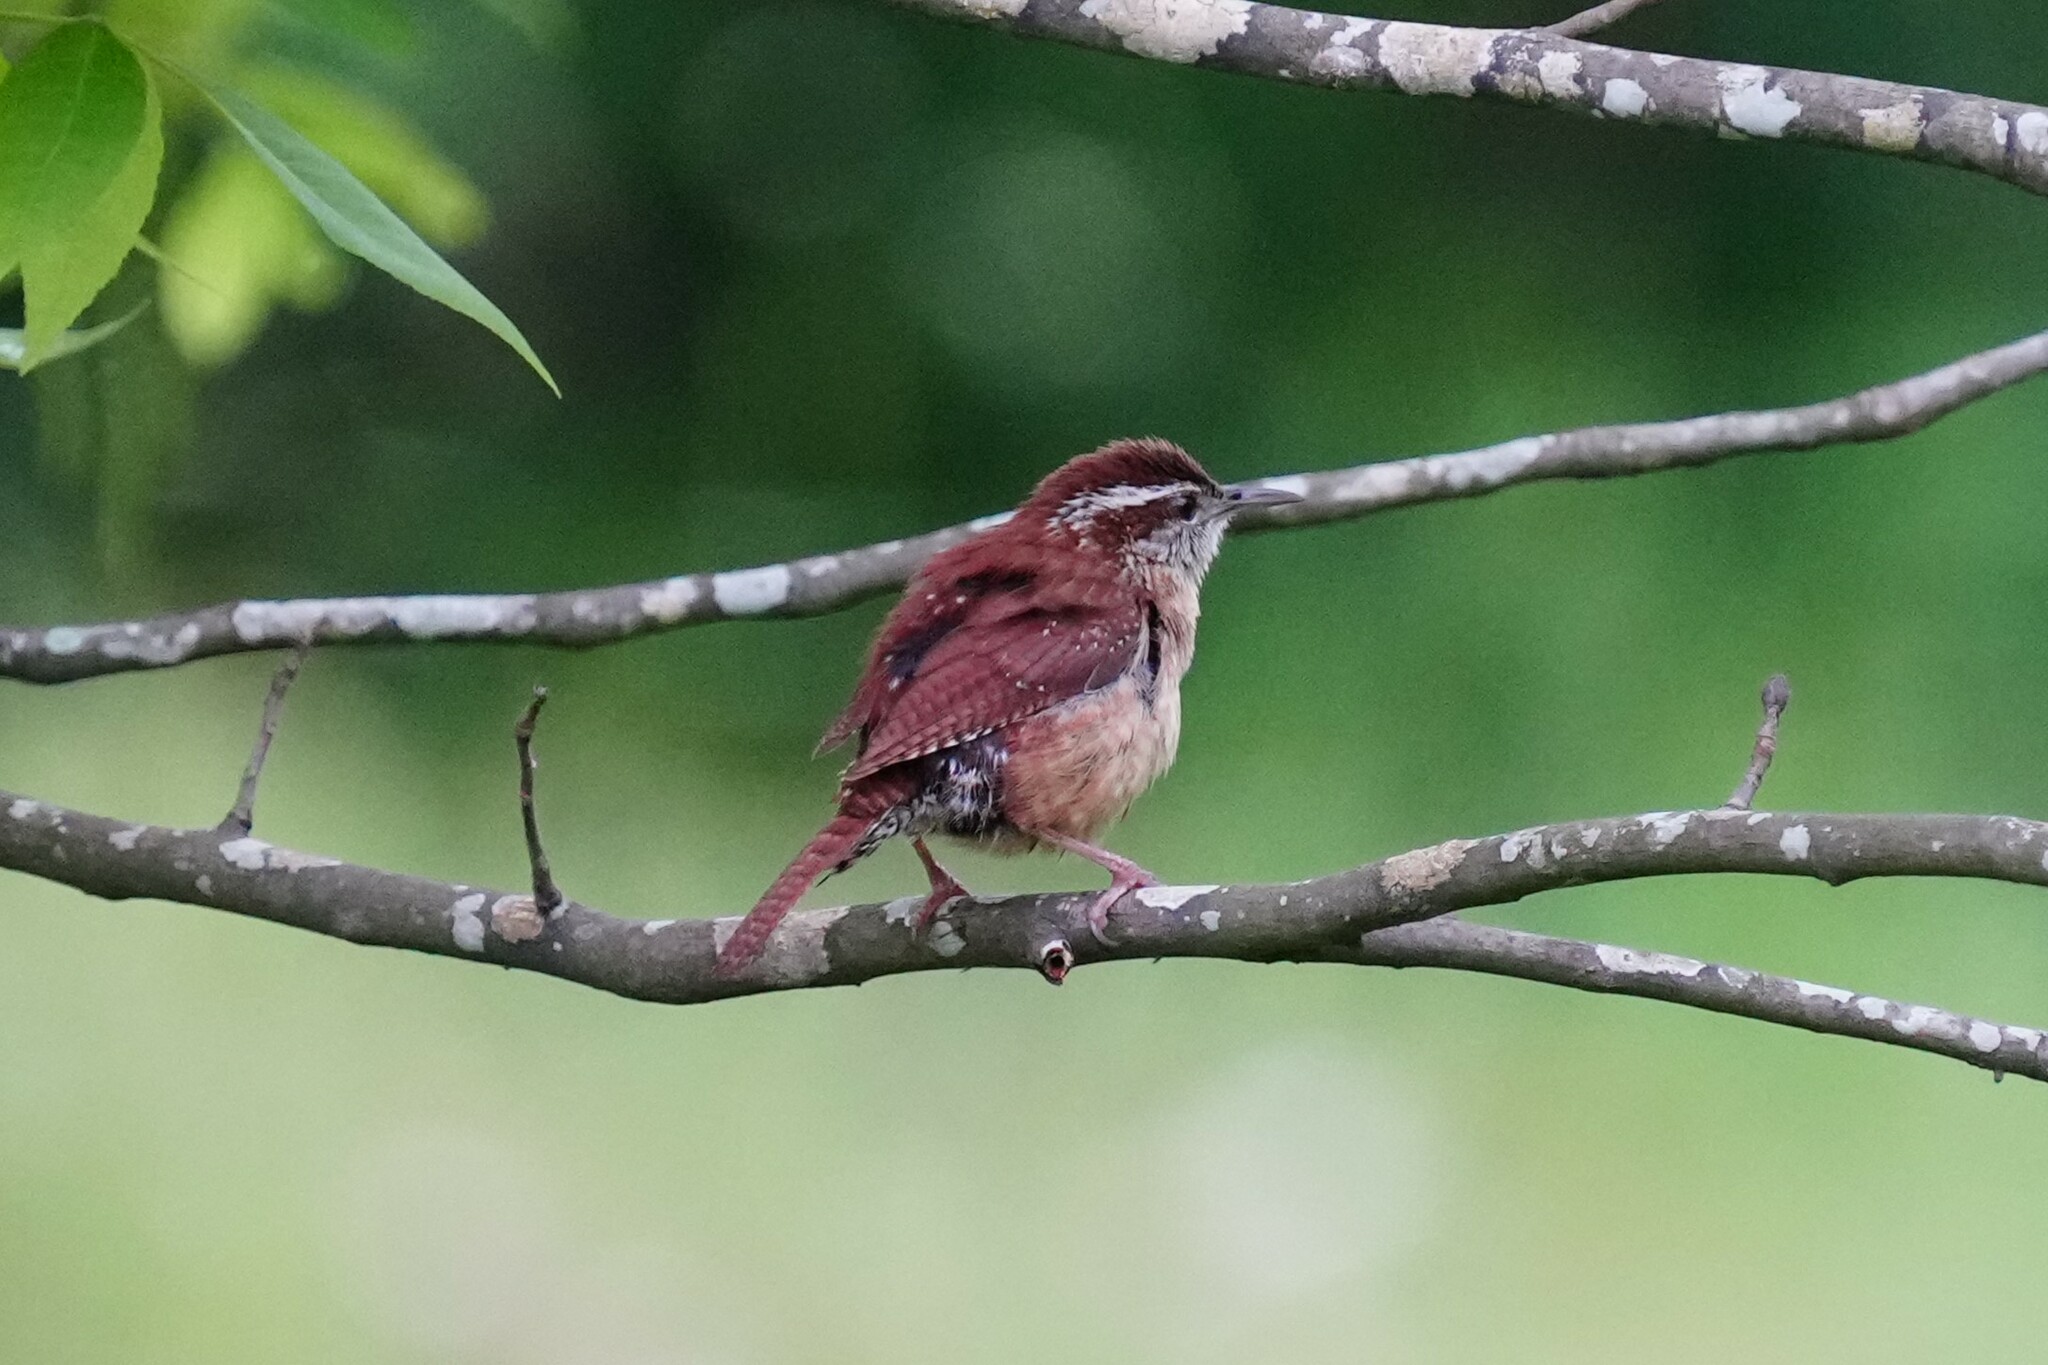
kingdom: Animalia
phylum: Chordata
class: Aves
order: Passeriformes
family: Troglodytidae
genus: Thryothorus
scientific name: Thryothorus ludovicianus
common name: Carolina wren
